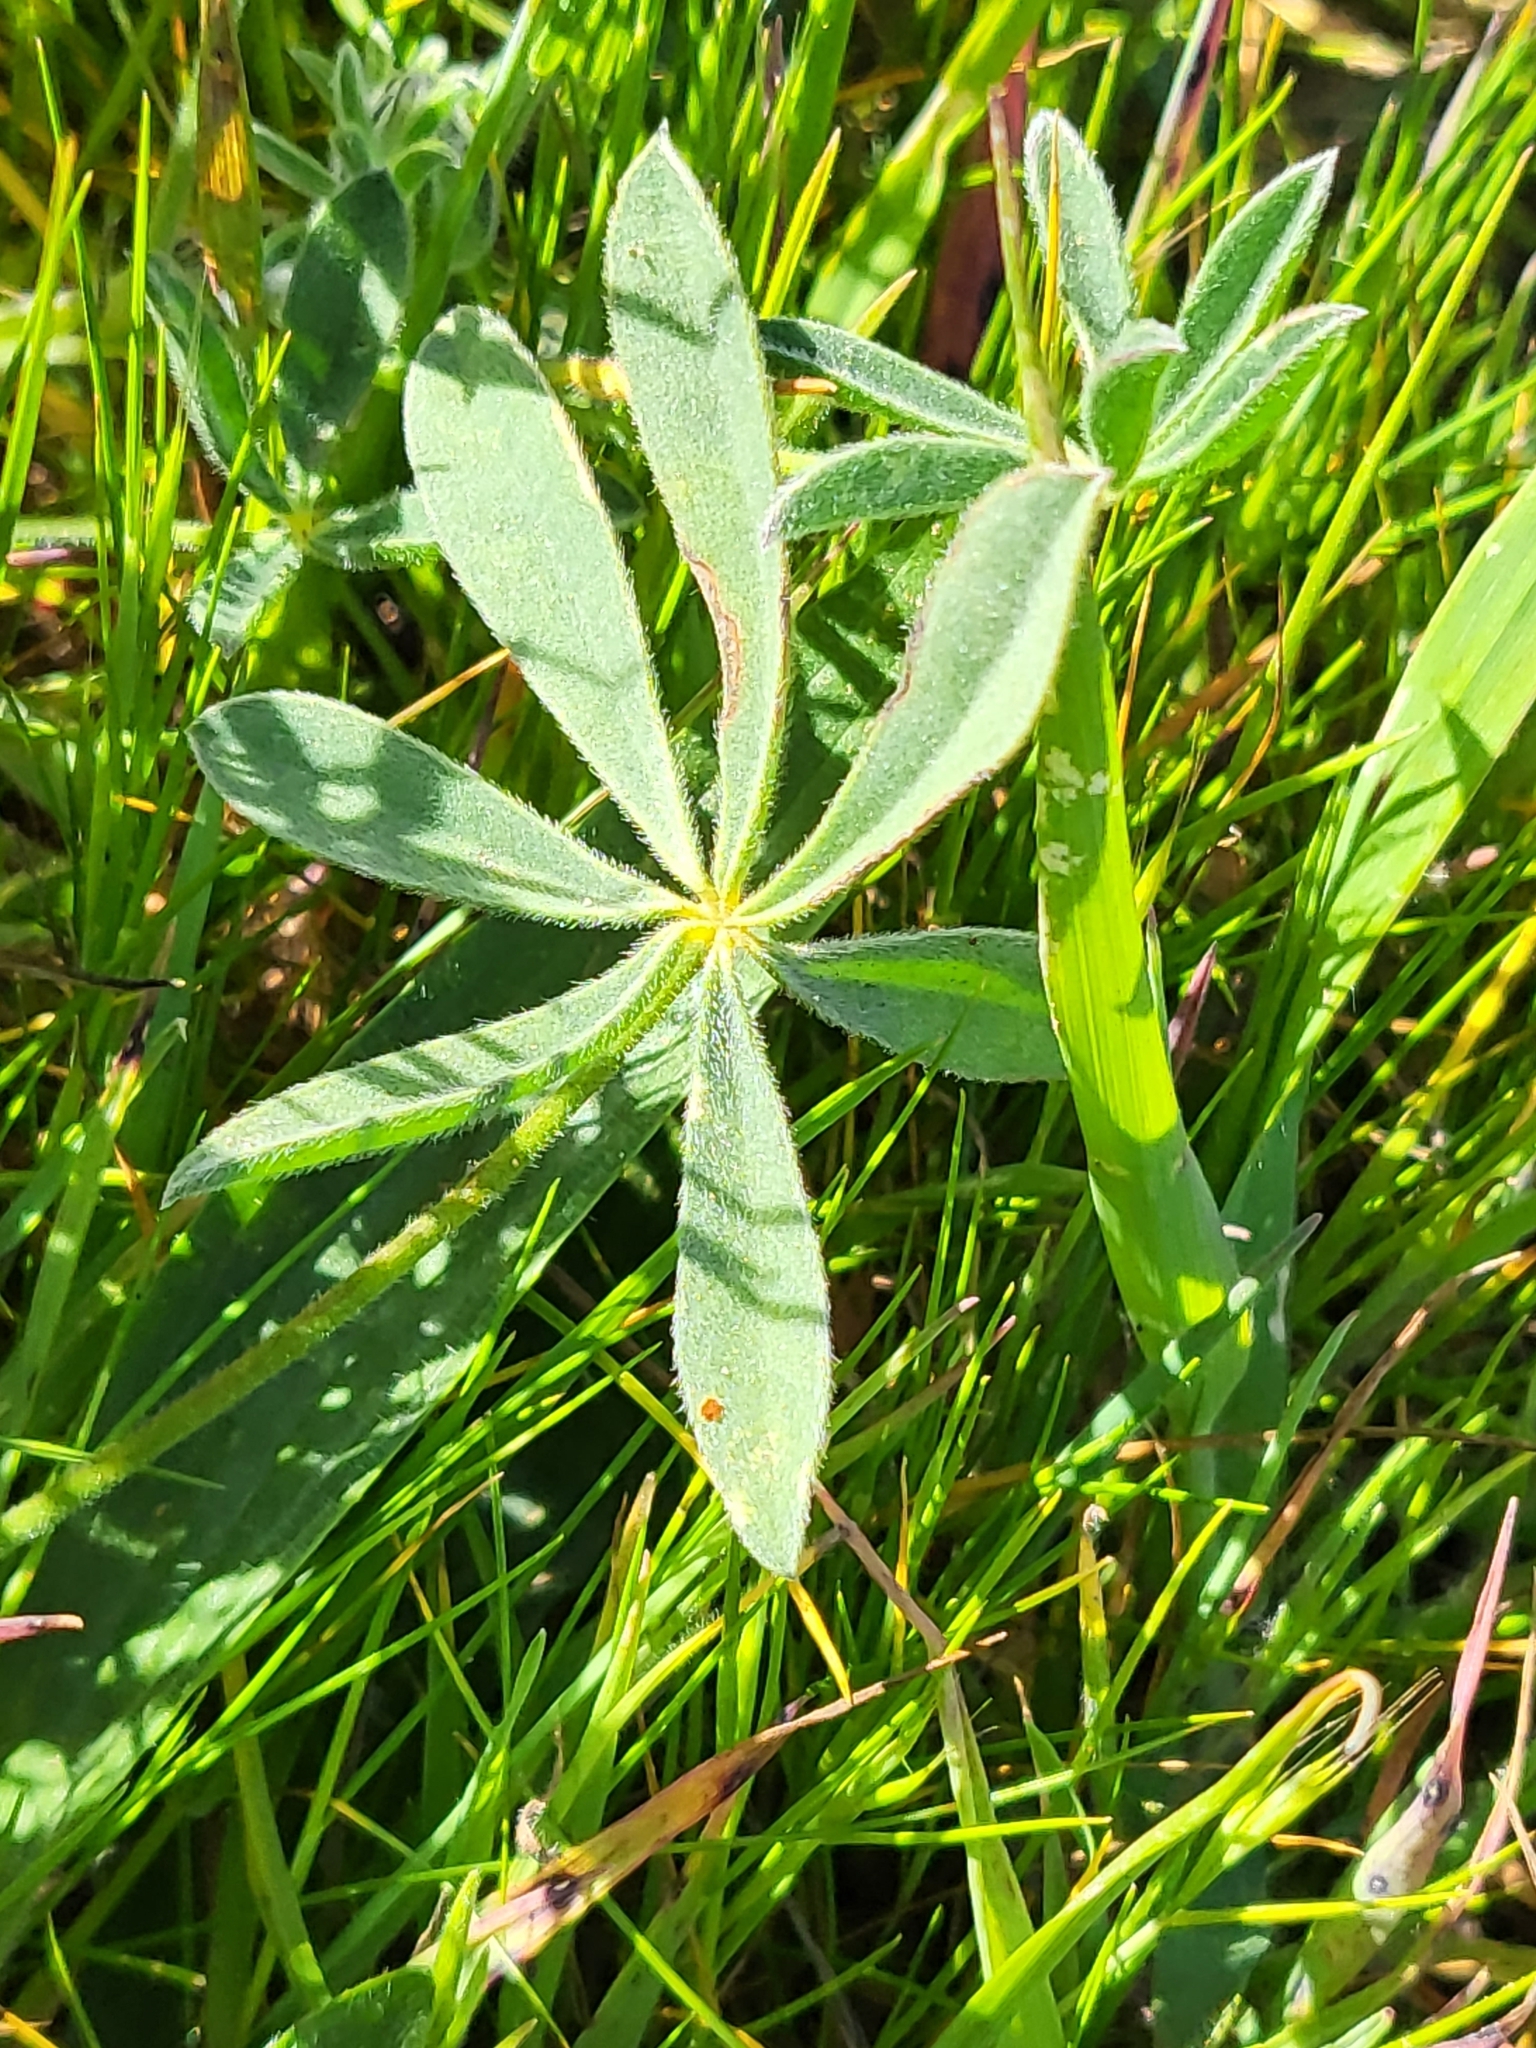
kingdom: Plantae
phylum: Tracheophyta
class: Magnoliopsida
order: Fabales
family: Fabaceae
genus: Lupinus
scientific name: Lupinus nanus
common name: Orean blue lupin
